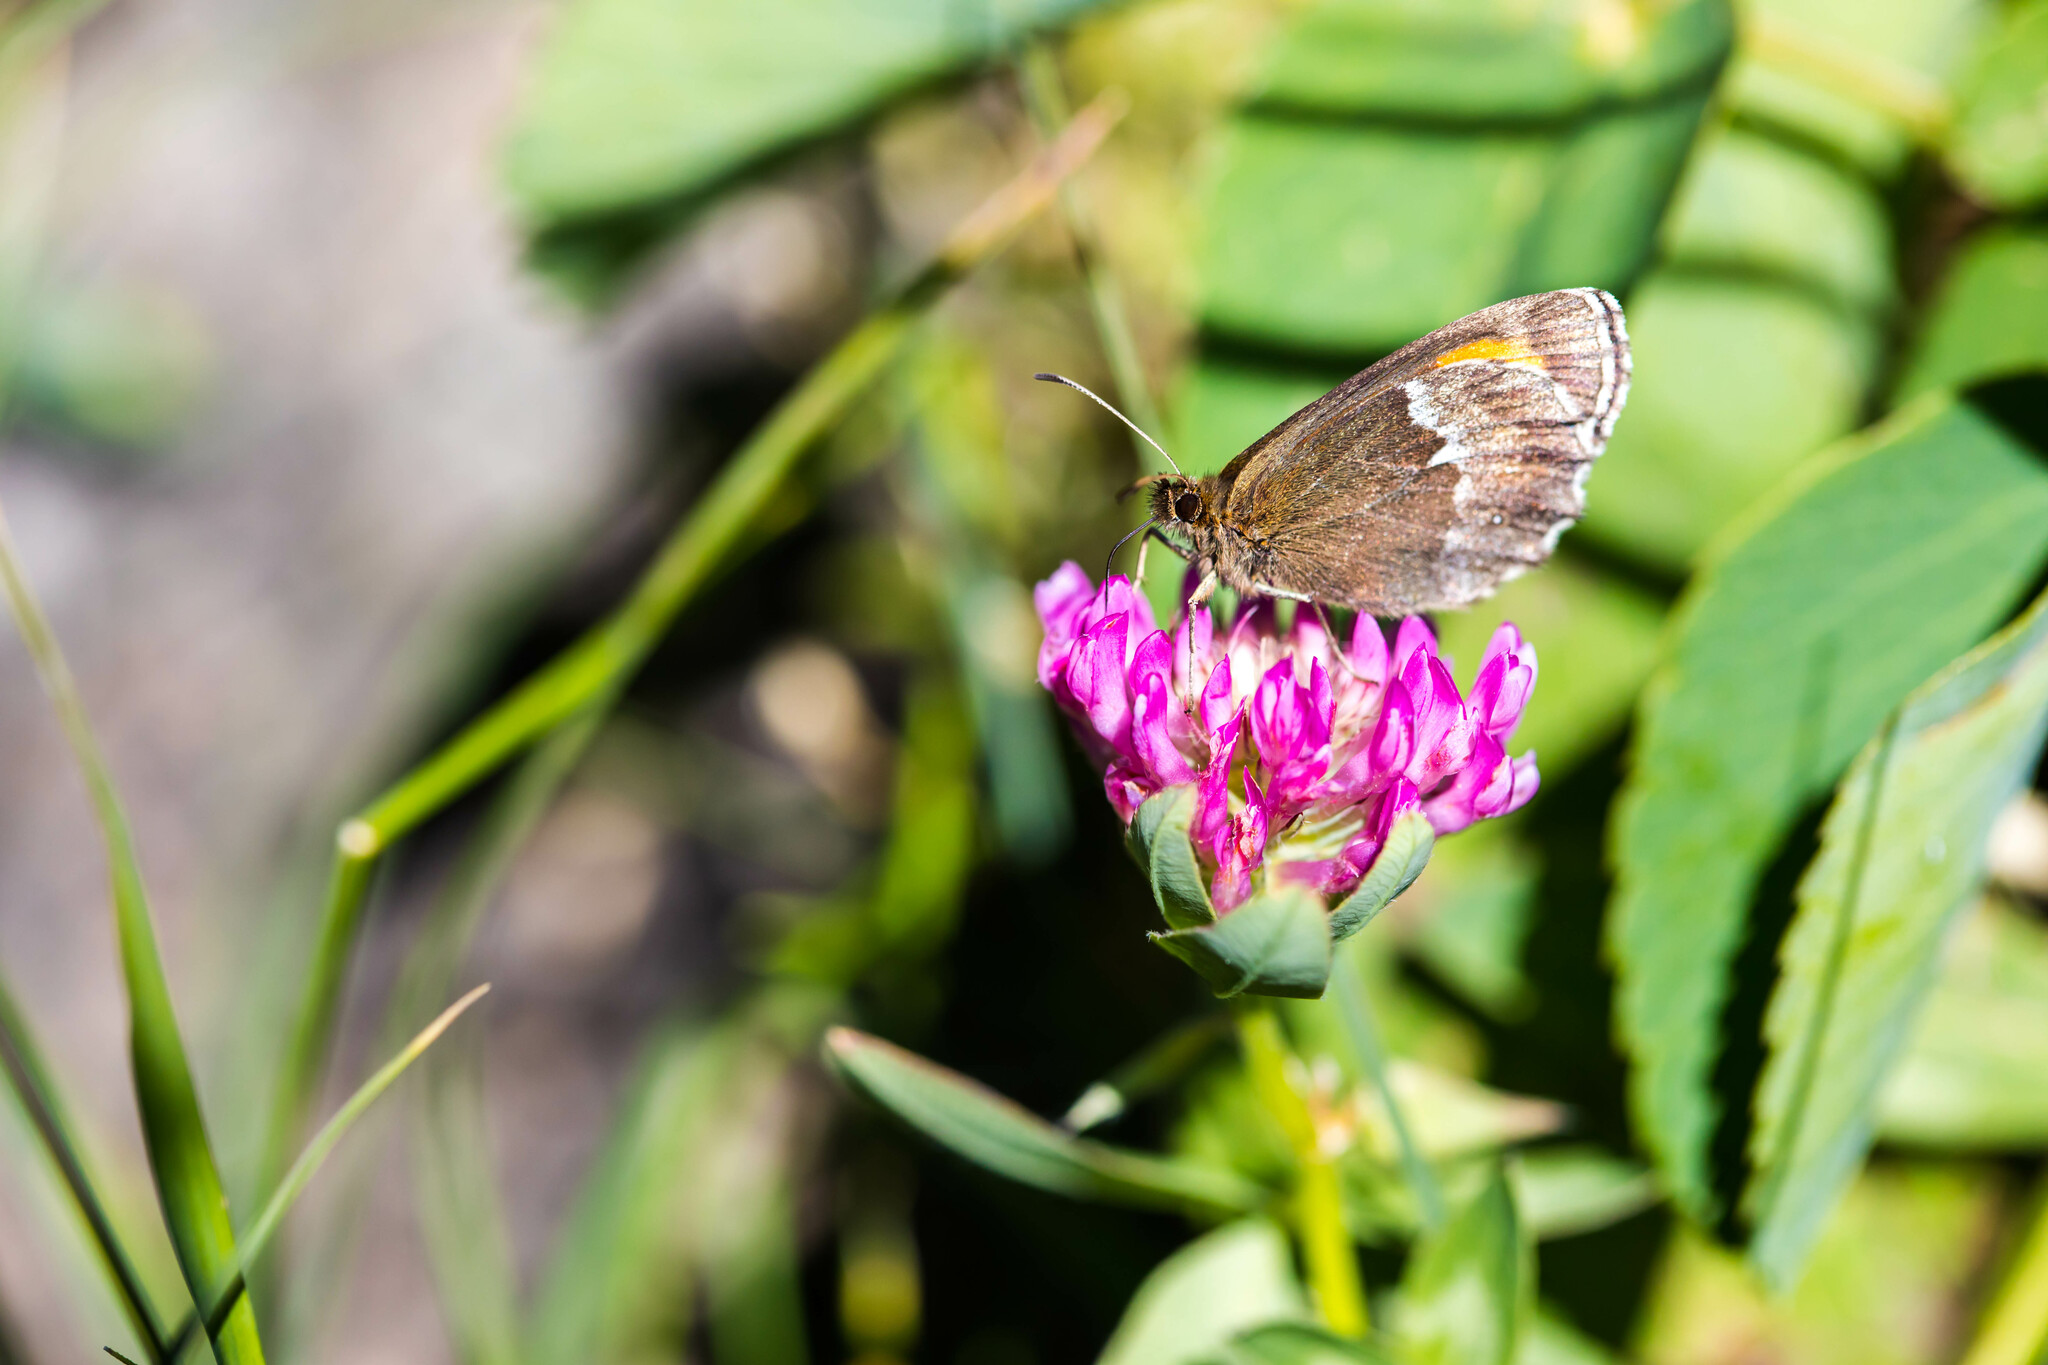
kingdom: Animalia
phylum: Arthropoda
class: Insecta
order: Lepidoptera
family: Nymphalidae
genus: Erebia
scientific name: Erebia euryale
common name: Large ringlet
